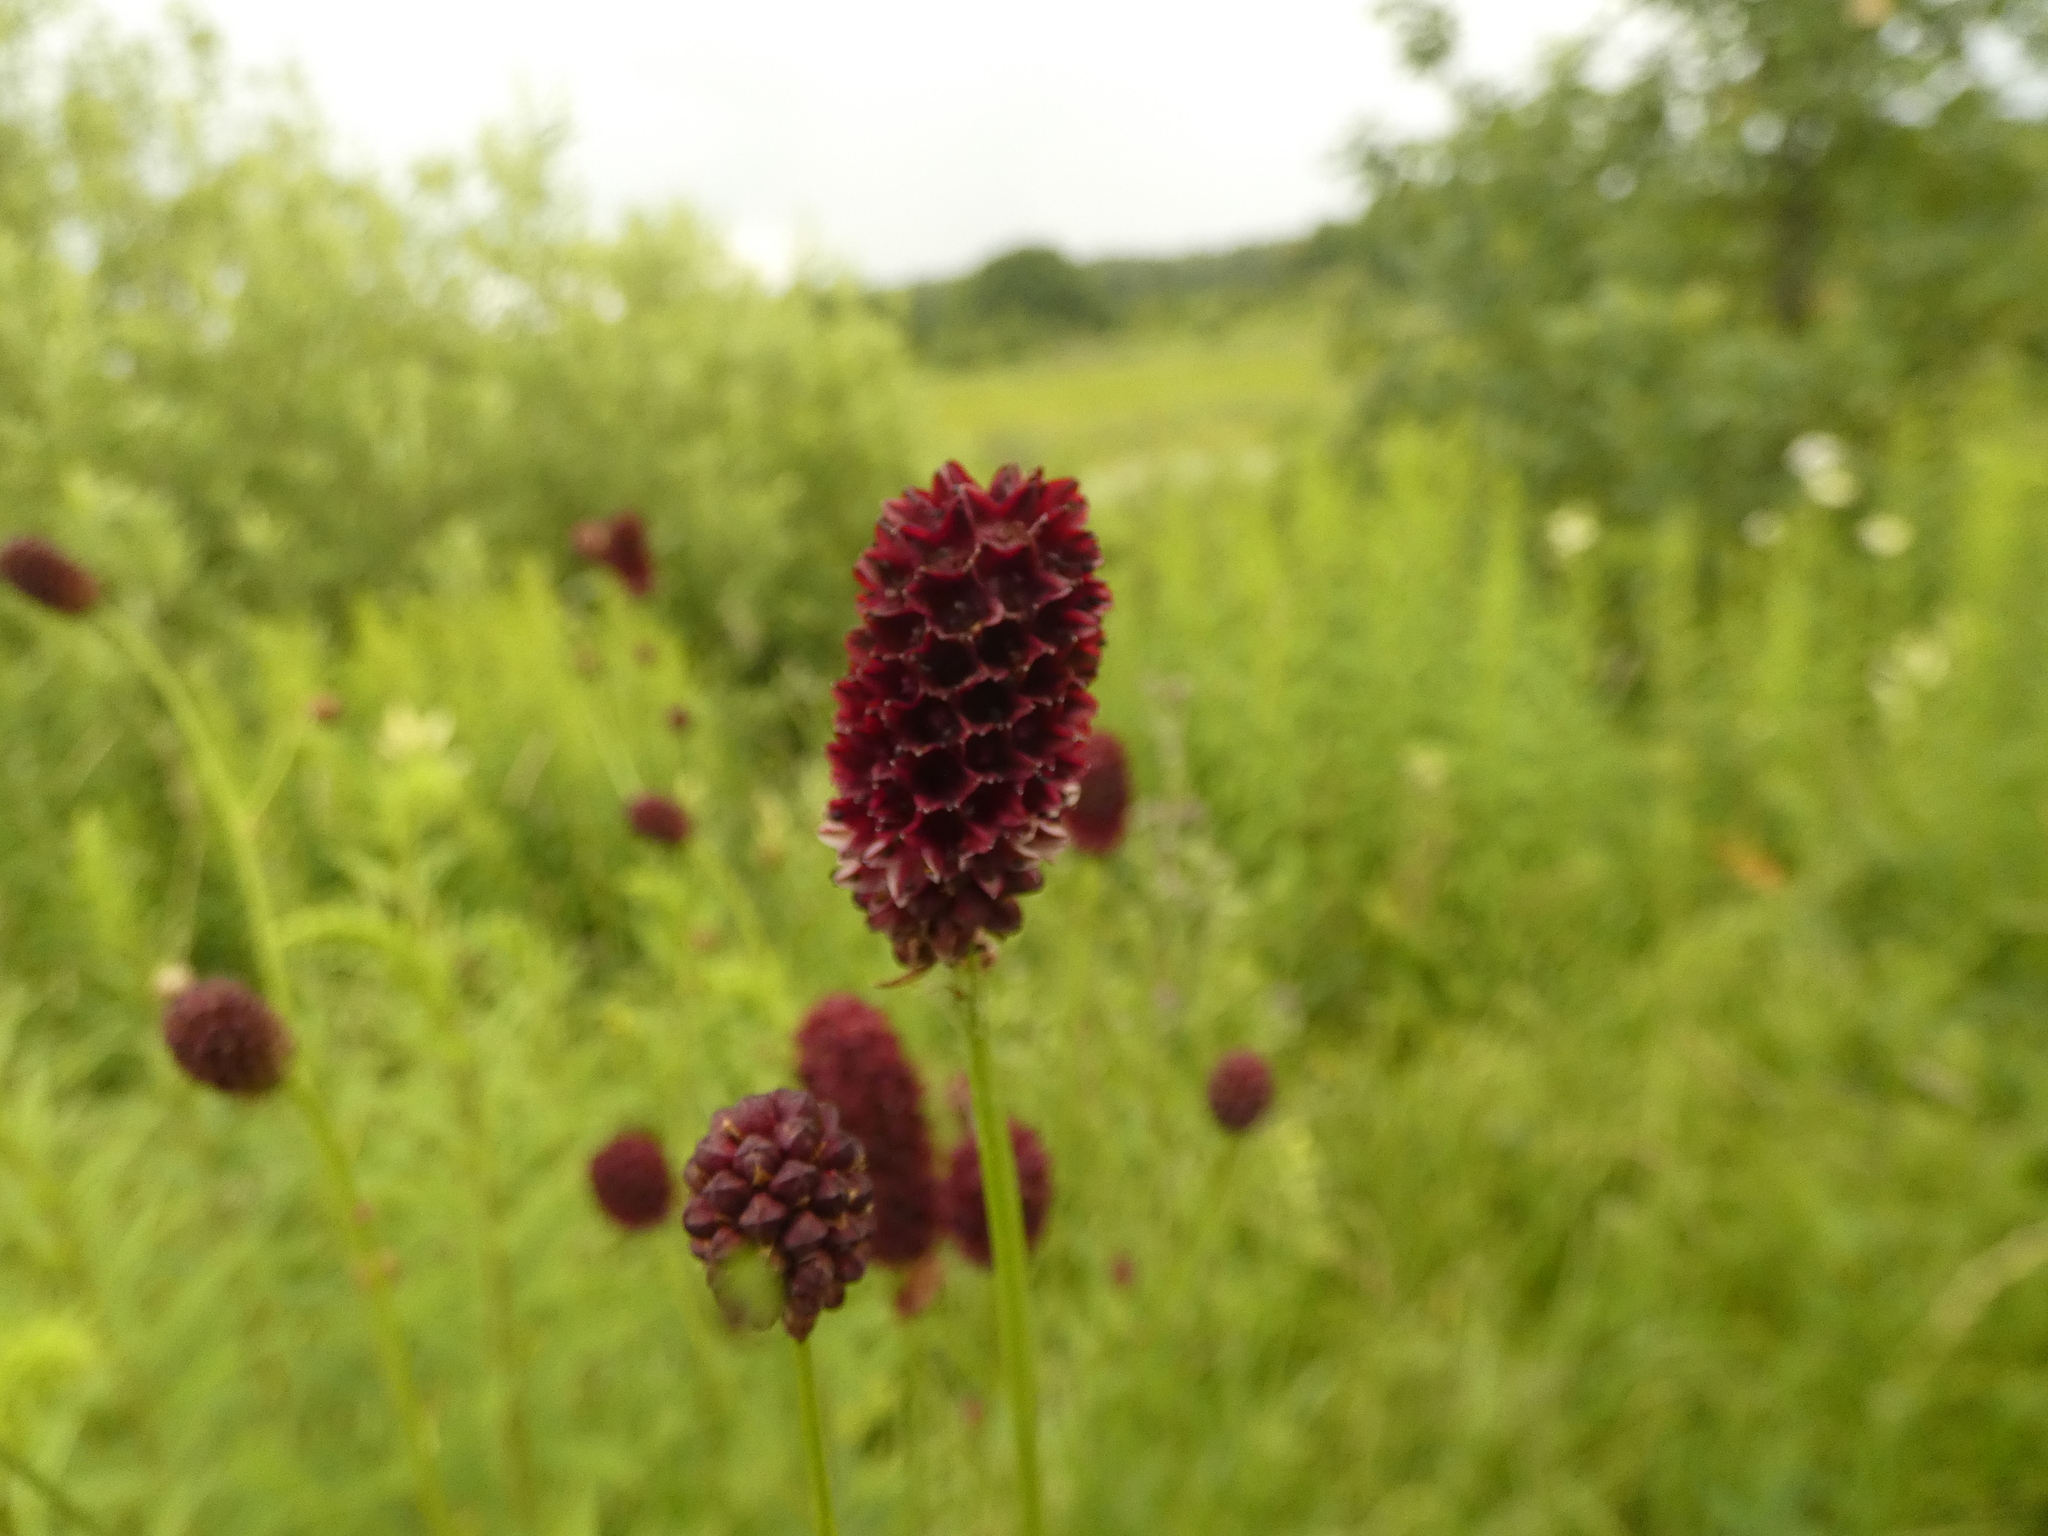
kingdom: Plantae
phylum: Tracheophyta
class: Magnoliopsida
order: Rosales
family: Rosaceae
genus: Sanguisorba
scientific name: Sanguisorba officinalis
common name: Great burnet
